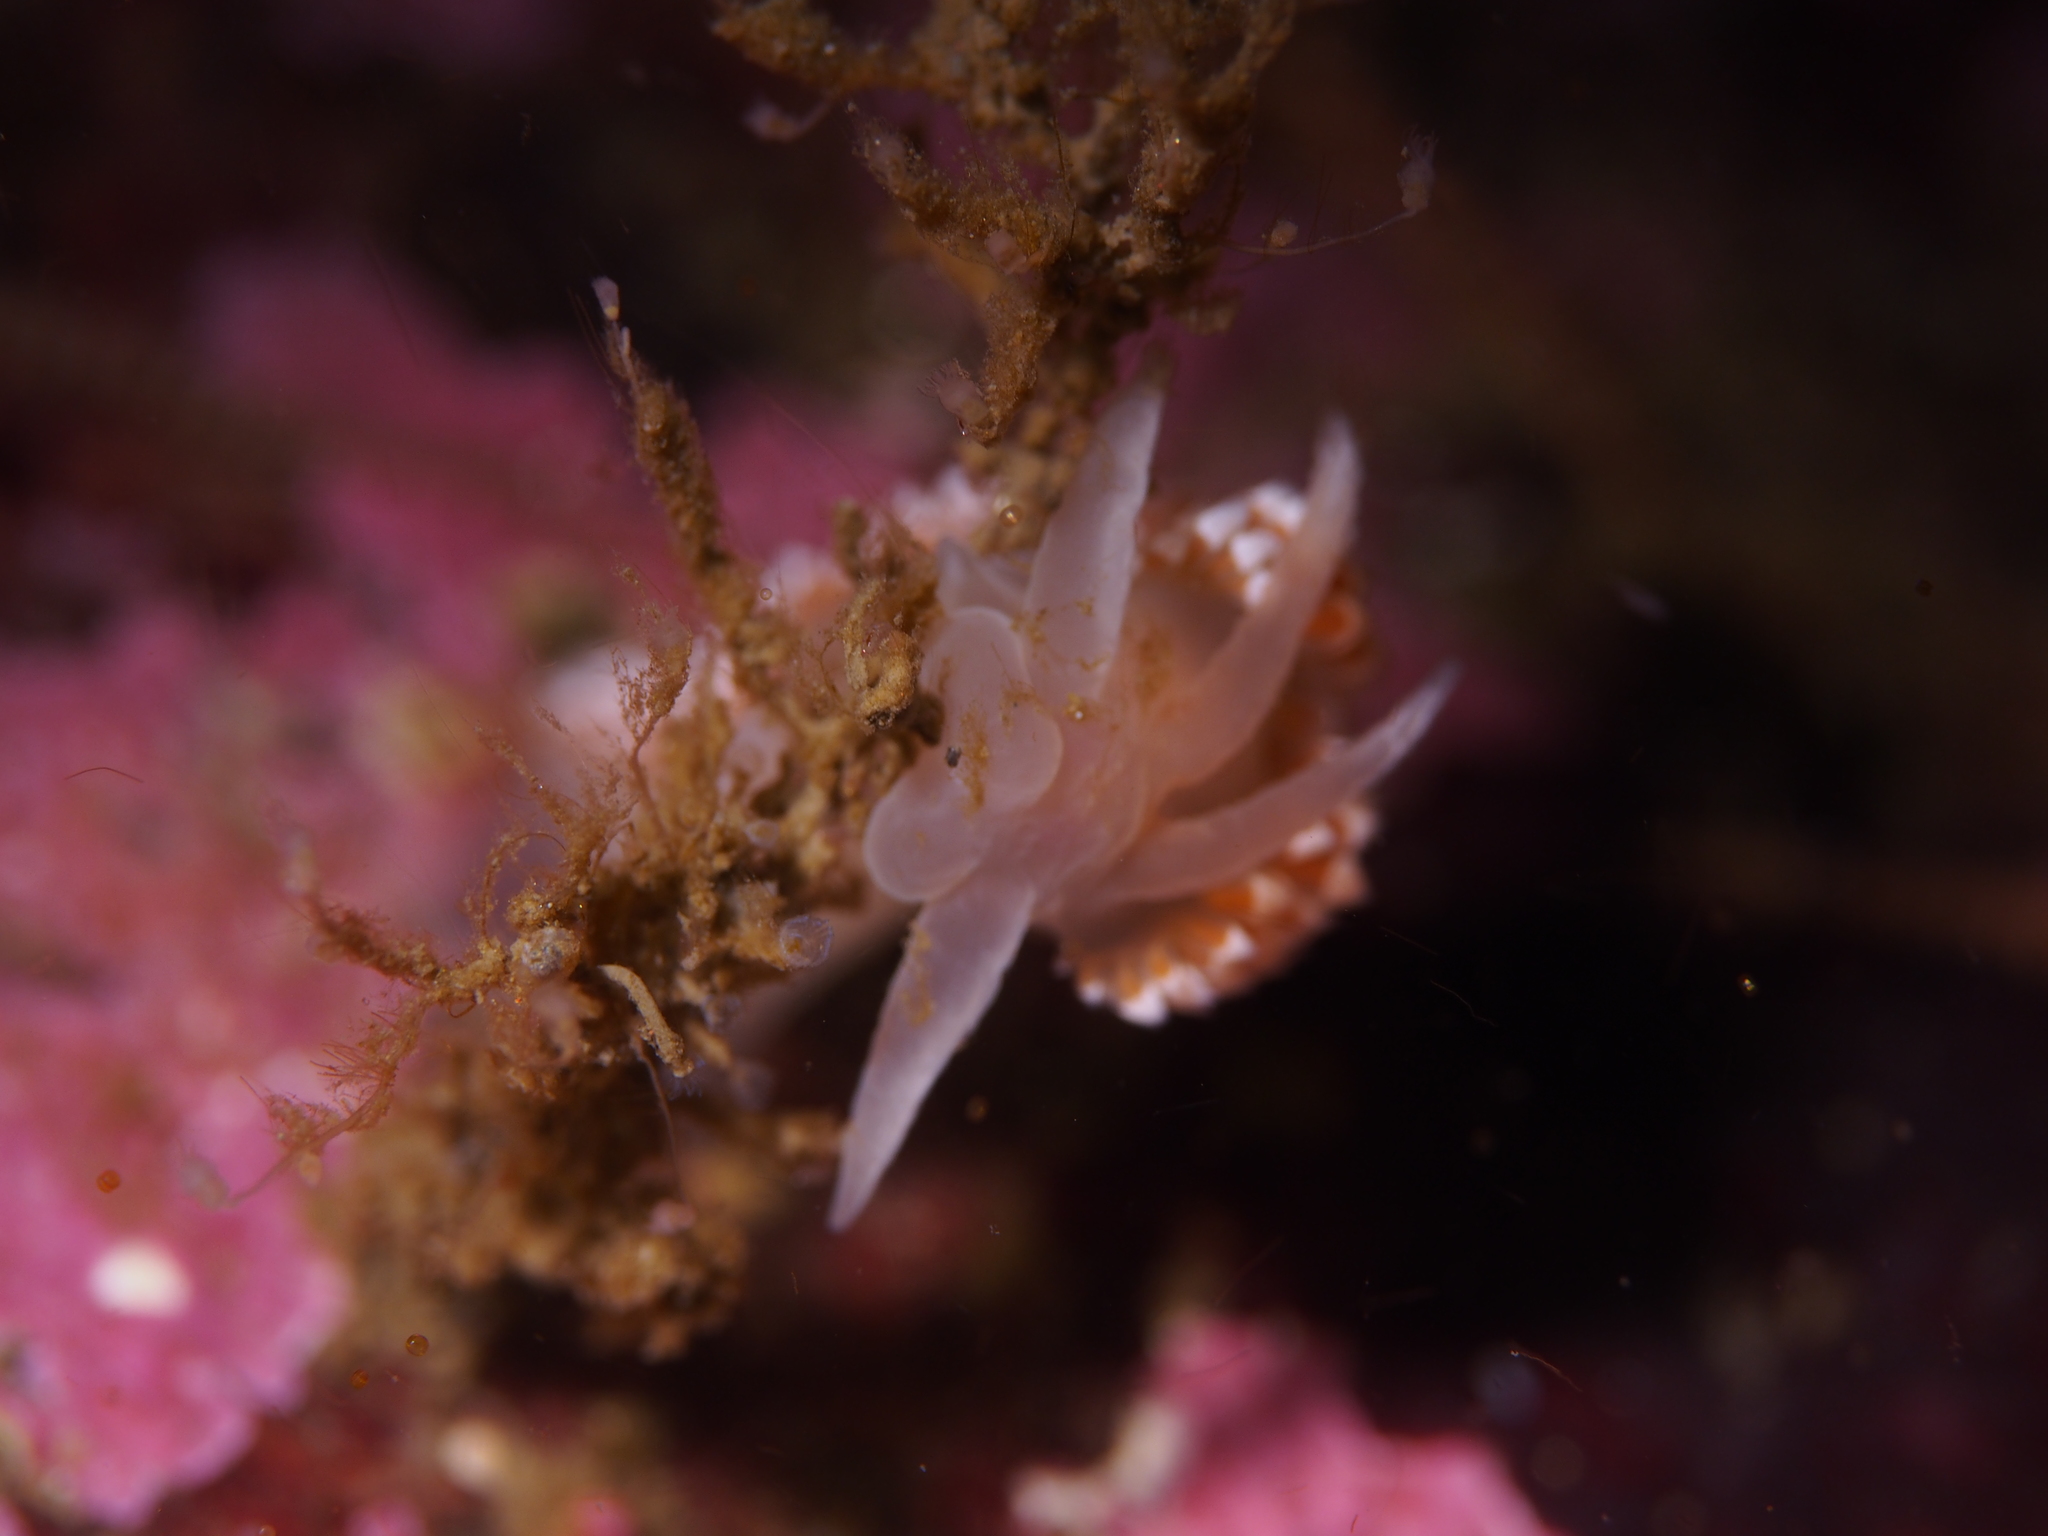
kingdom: Animalia
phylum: Mollusca
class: Gastropoda
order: Nudibranchia
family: Coryphellidae
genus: Coryphella
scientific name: Coryphella verrucosa
